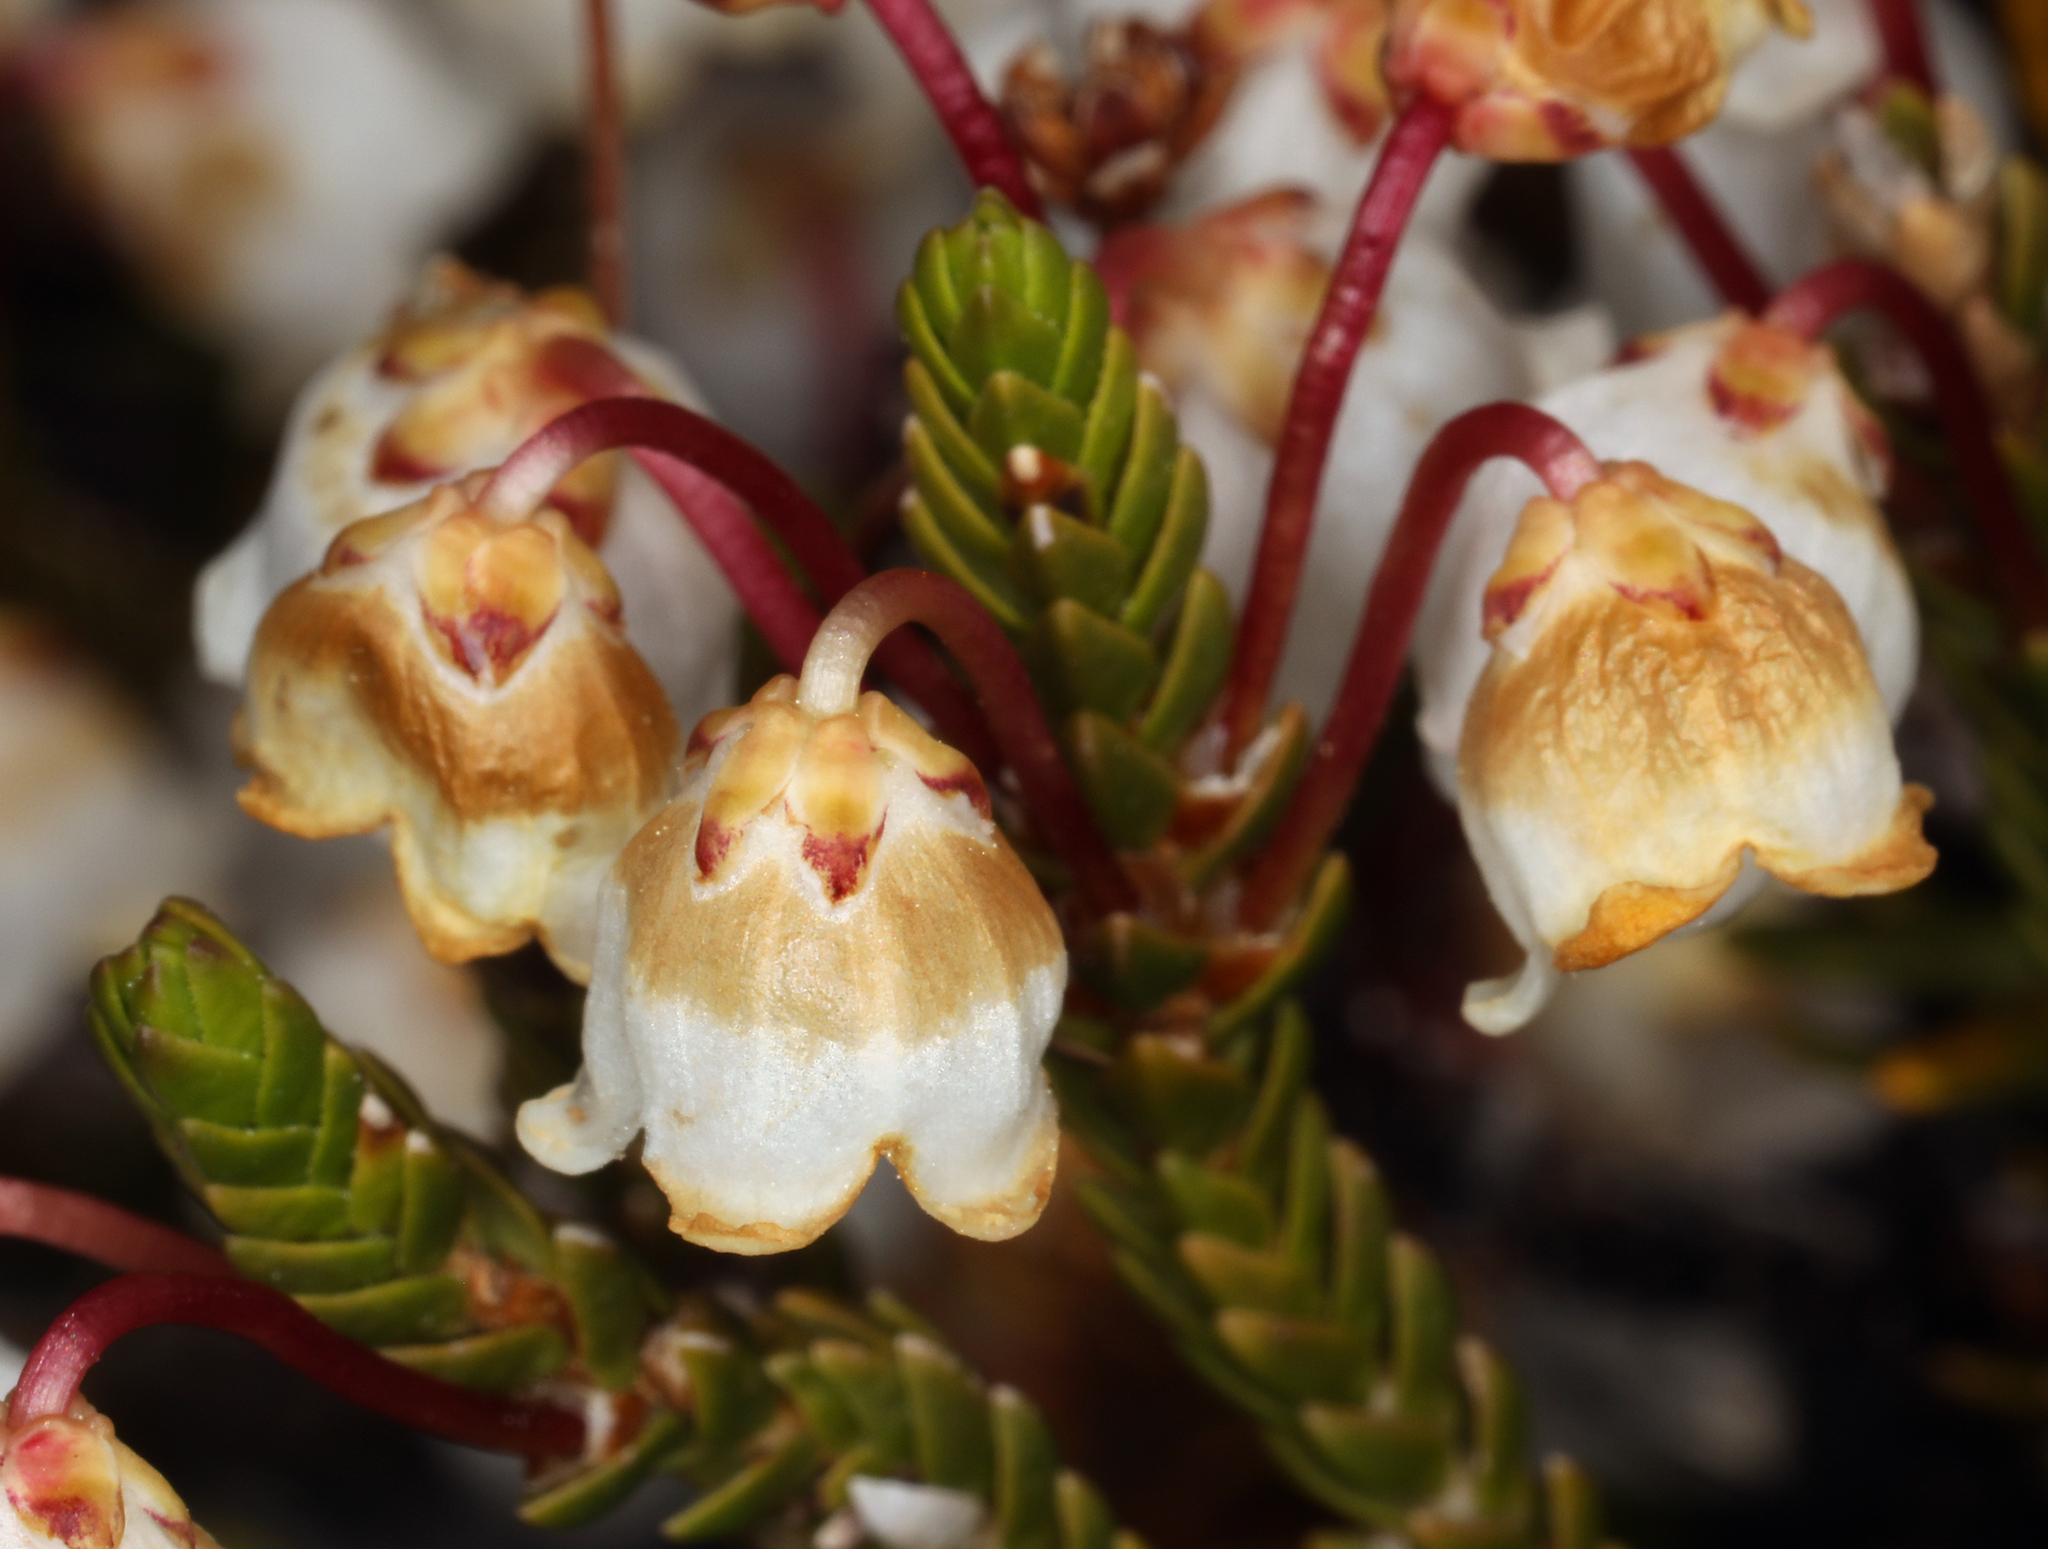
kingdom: Plantae
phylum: Tracheophyta
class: Magnoliopsida
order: Ericales
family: Ericaceae
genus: Cassiope
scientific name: Cassiope mertensiana
